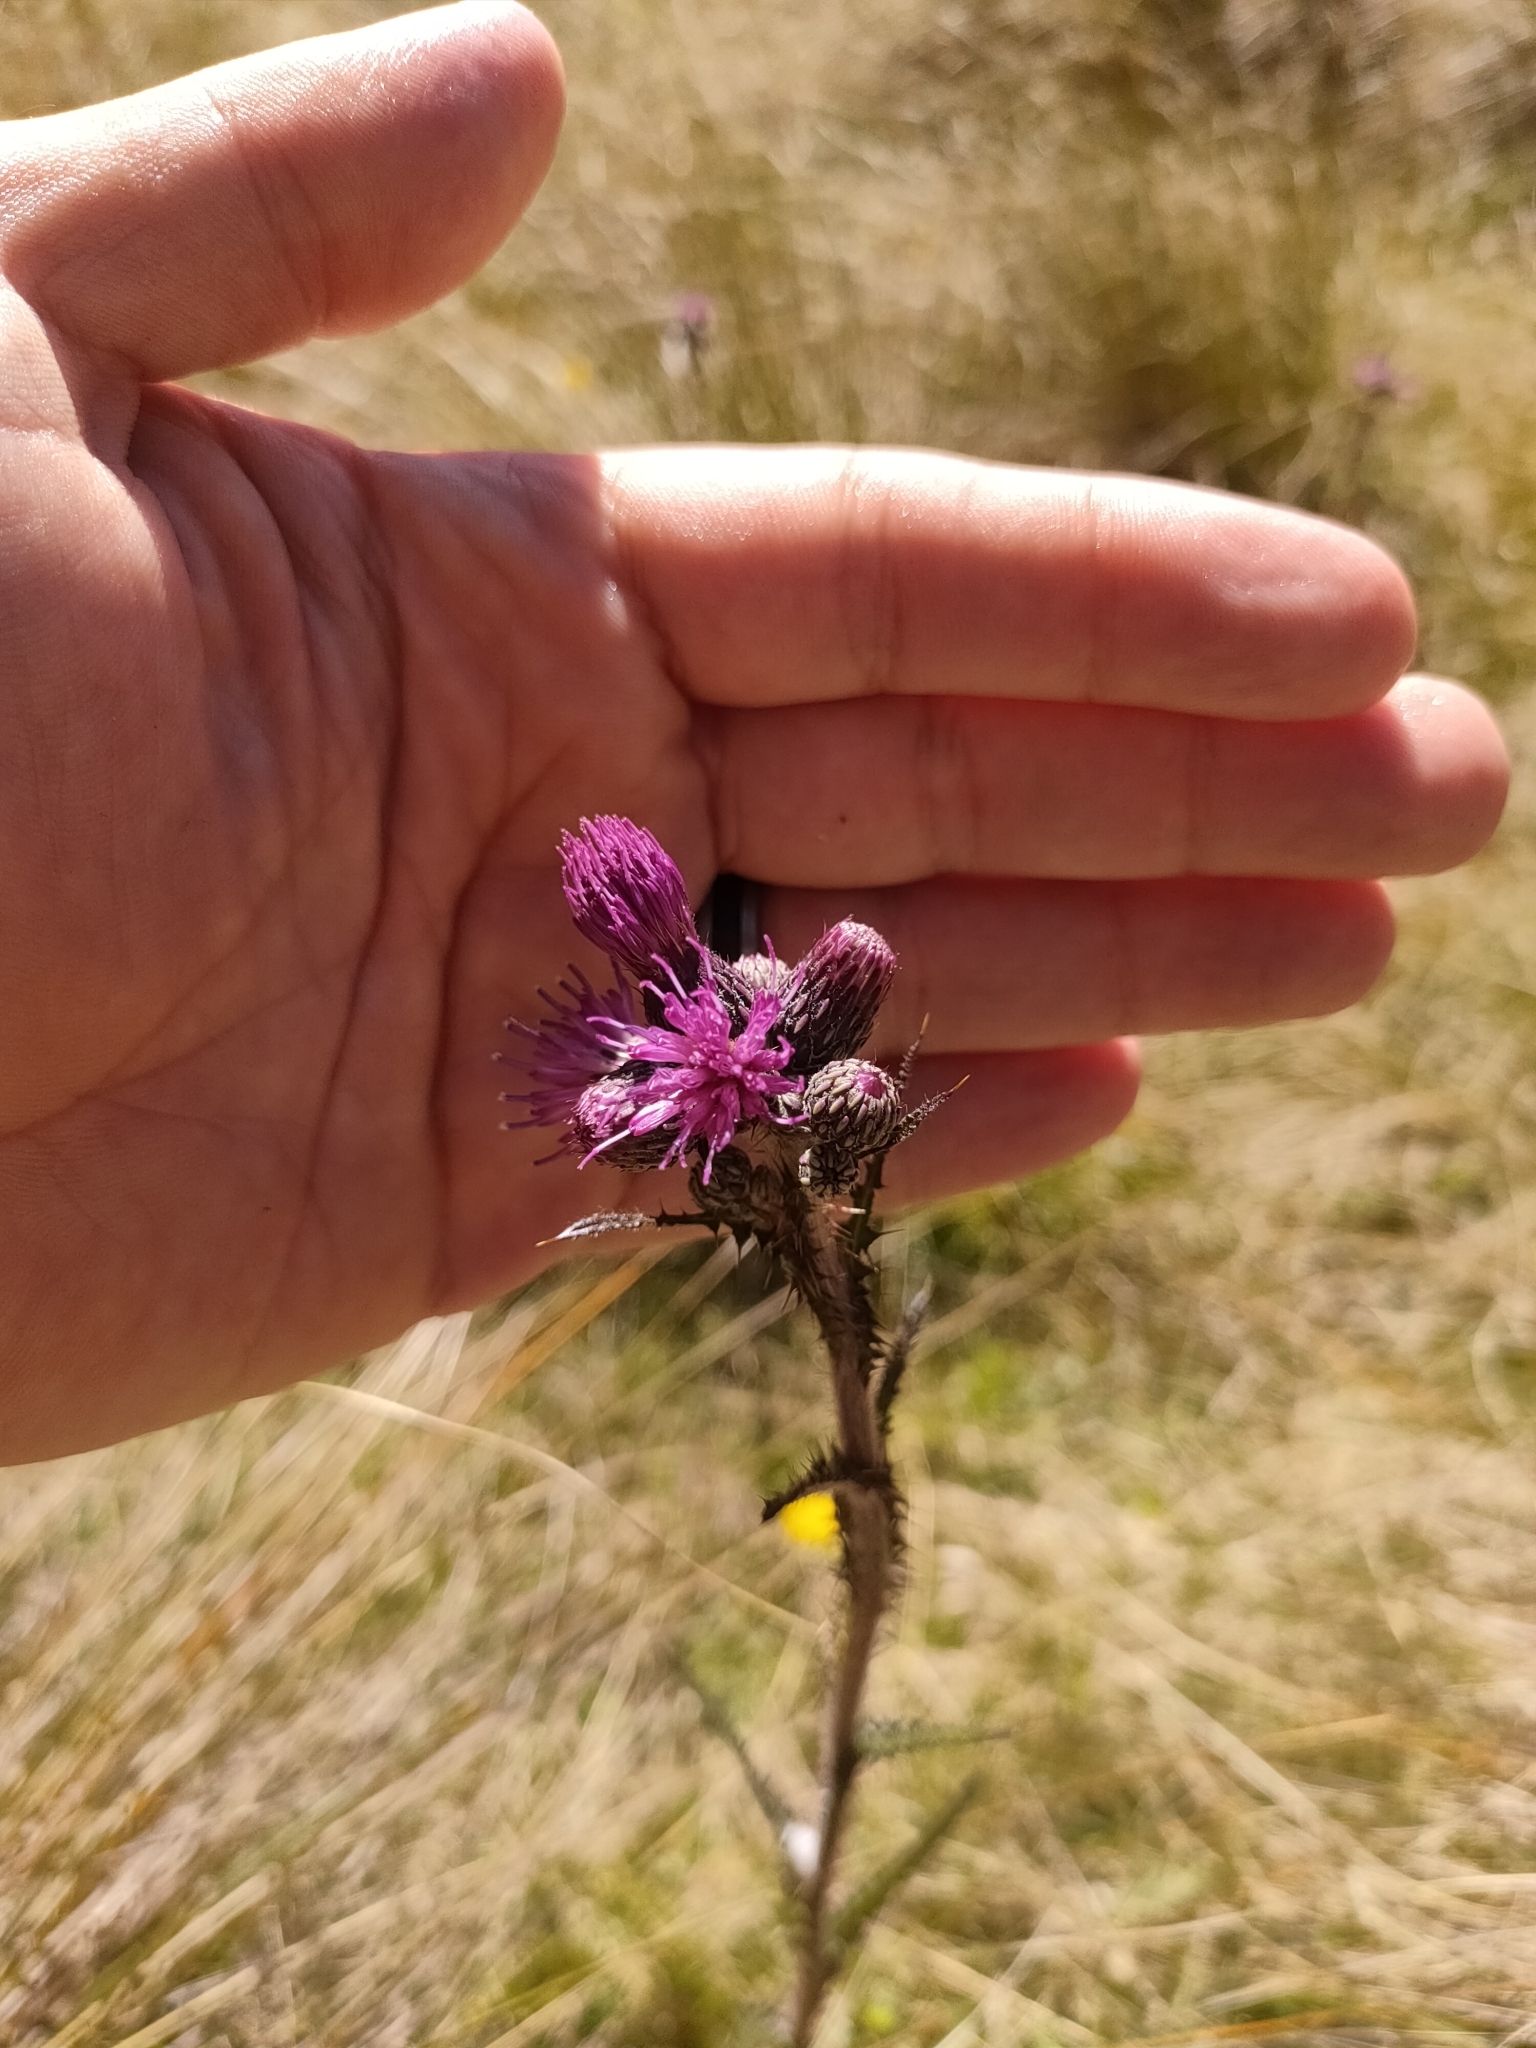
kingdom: Plantae
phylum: Tracheophyta
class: Magnoliopsida
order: Asterales
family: Asteraceae
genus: Cirsium
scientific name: Cirsium palustre
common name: Marsh thistle
